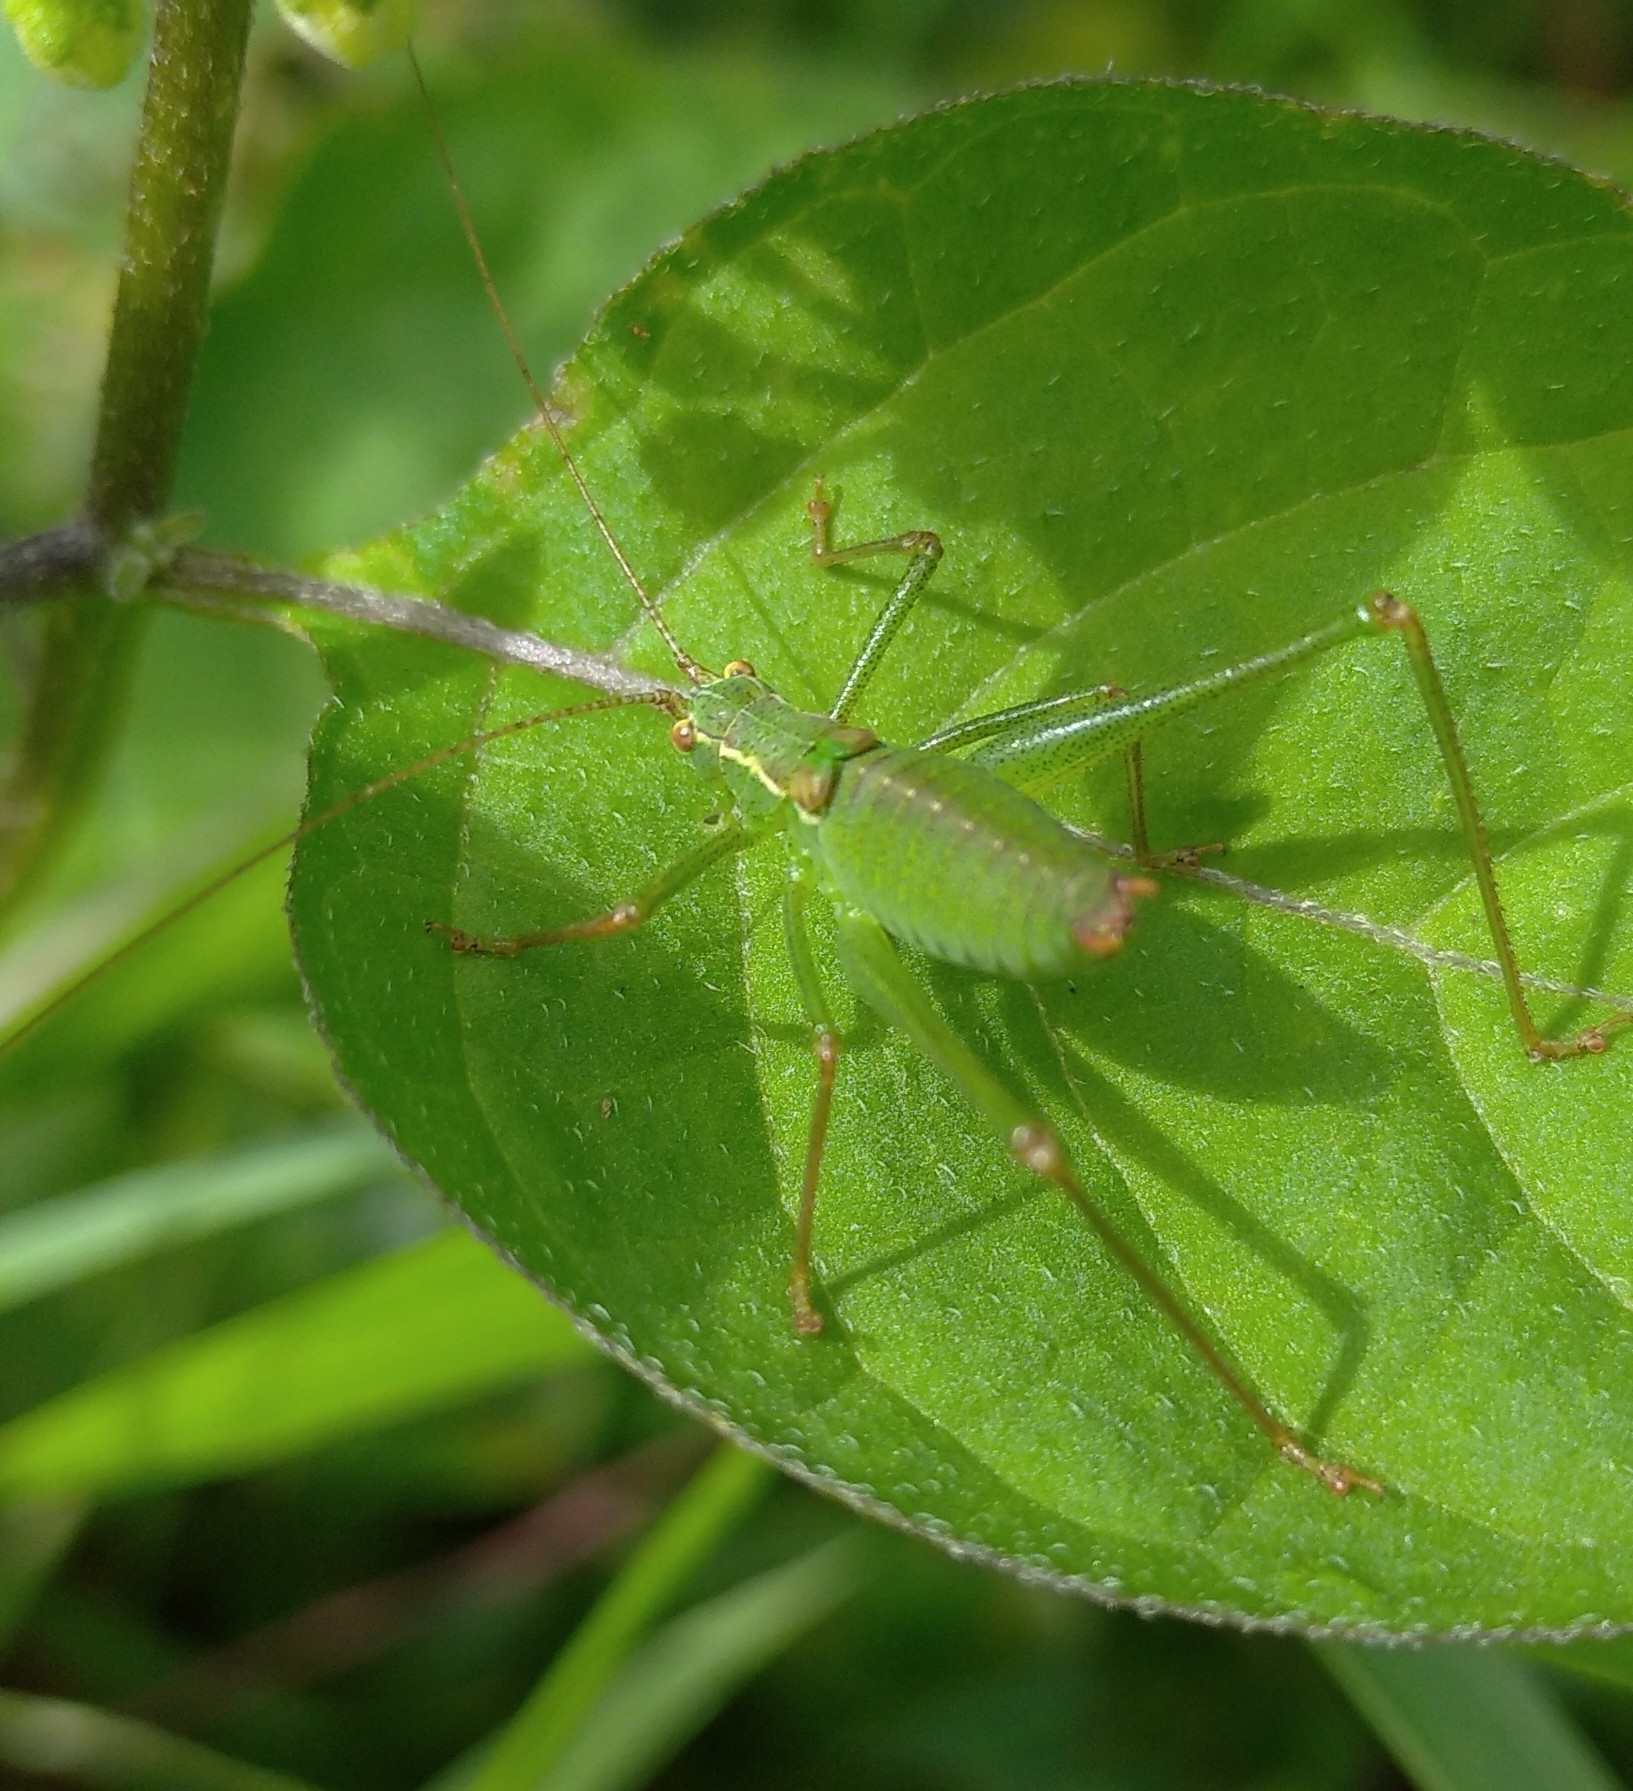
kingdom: Animalia
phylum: Arthropoda
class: Insecta
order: Orthoptera
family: Tettigoniidae
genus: Leptophyes
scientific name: Leptophyes punctatissima
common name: Speckled bush-cricket
